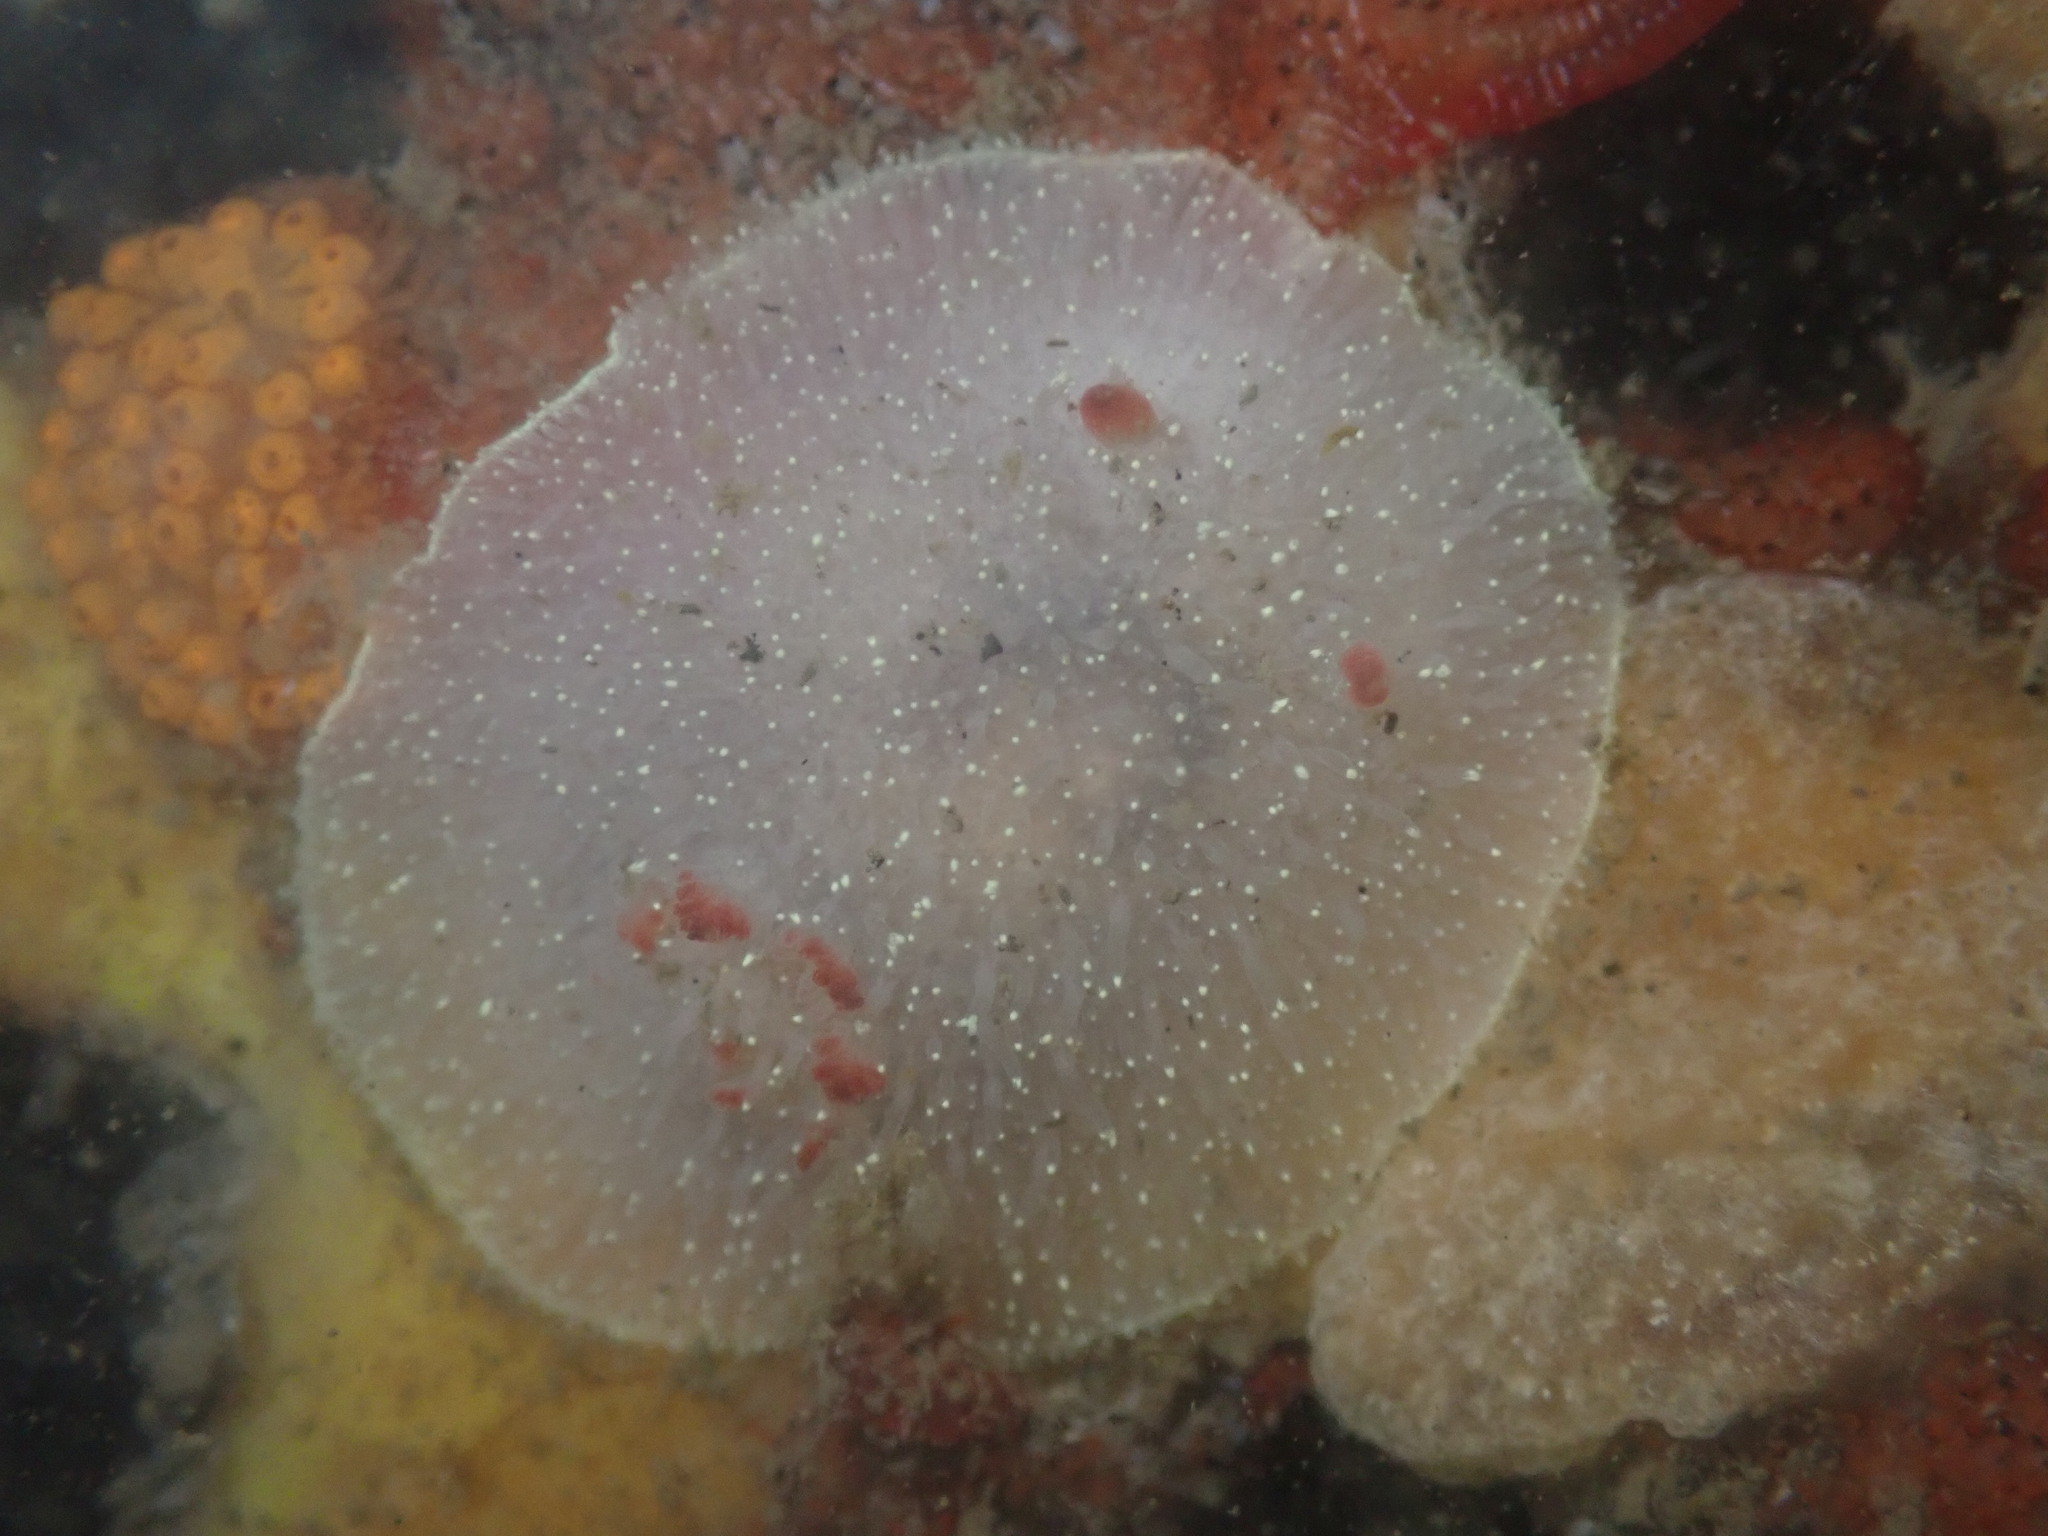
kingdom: Animalia
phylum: Mollusca
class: Gastropoda
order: Nudibranchia
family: Onchidorididae
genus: Acanthodoris
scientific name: Acanthodoris nanaimoensis
